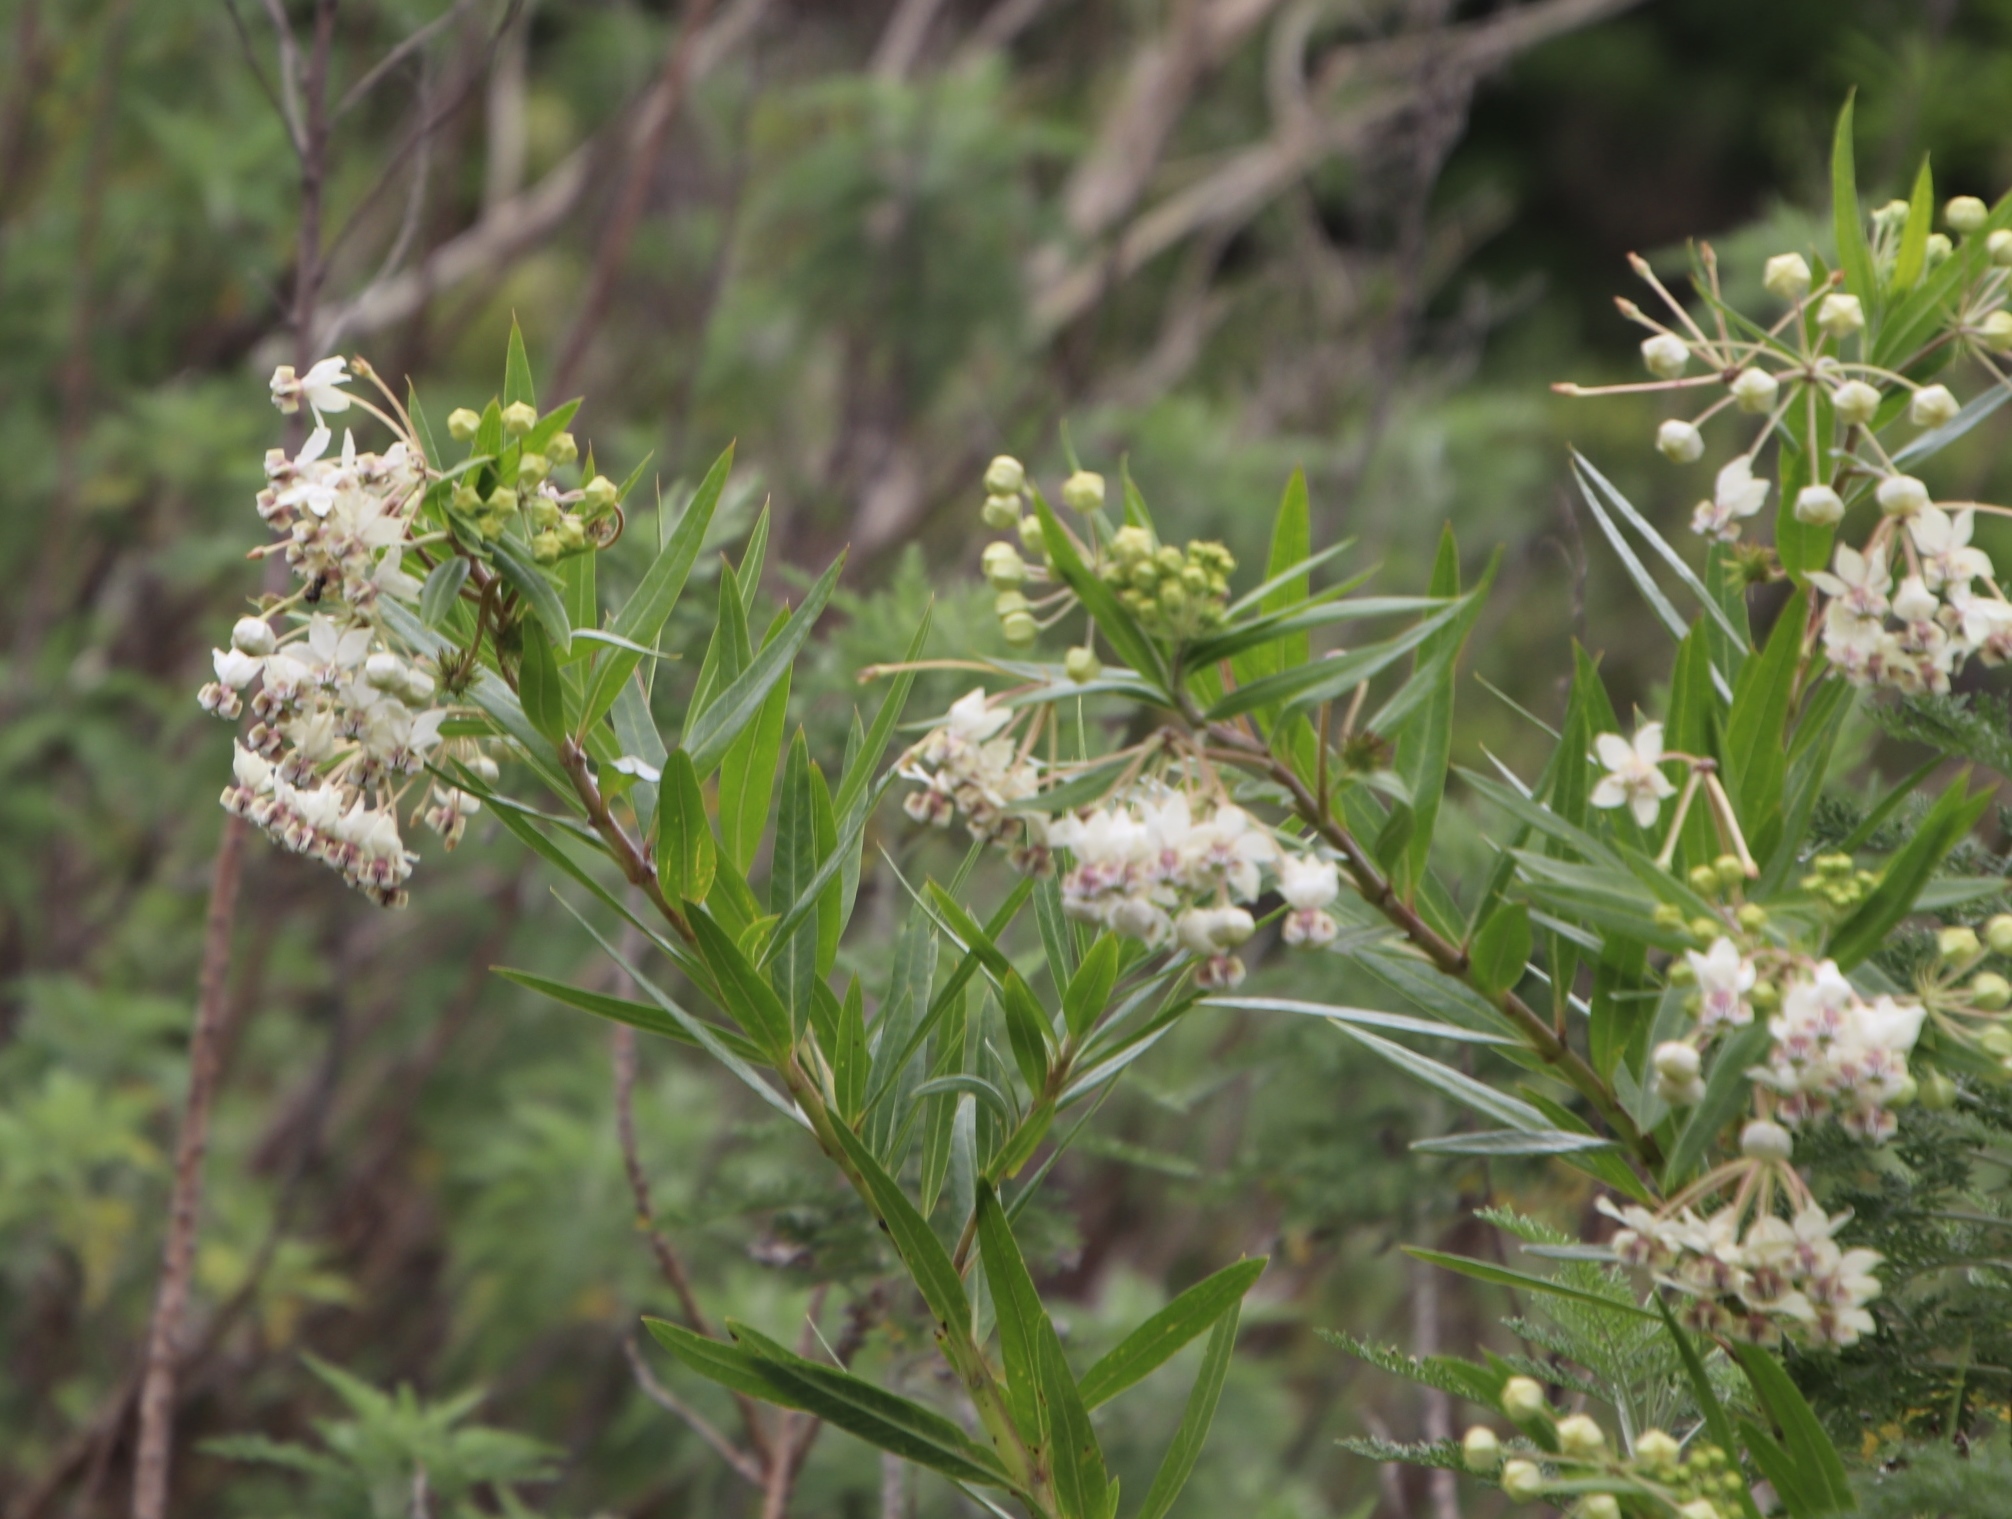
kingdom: Plantae
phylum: Tracheophyta
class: Magnoliopsida
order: Gentianales
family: Apocynaceae
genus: Gomphocarpus
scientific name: Gomphocarpus fruticosus
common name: Milkweed
